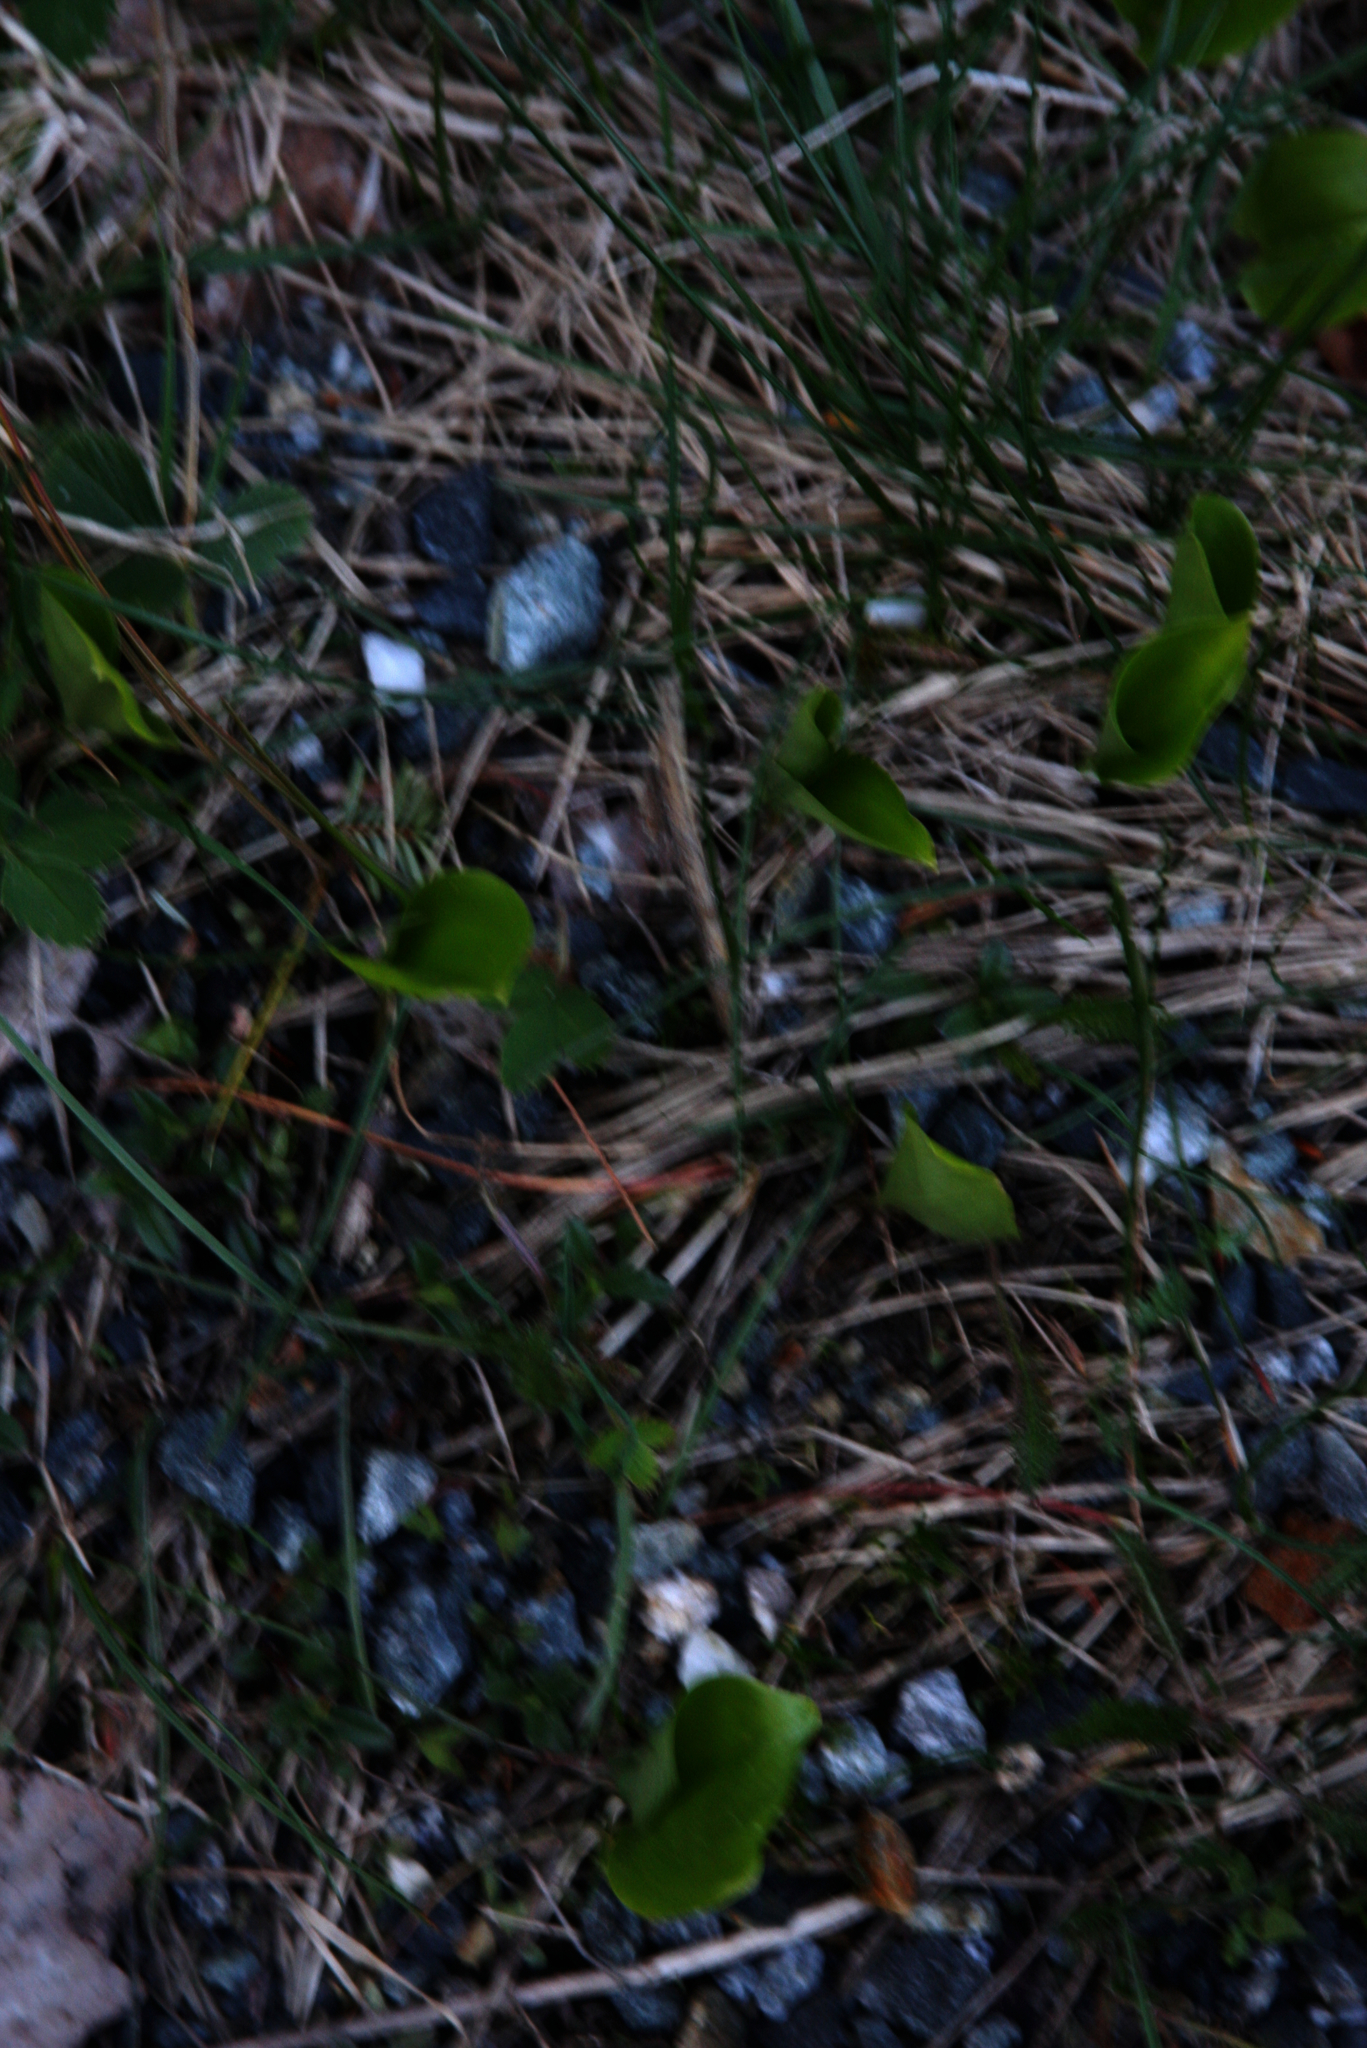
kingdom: Plantae
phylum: Tracheophyta
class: Liliopsida
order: Asparagales
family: Asparagaceae
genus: Maianthemum
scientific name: Maianthemum canadense
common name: False lily-of-the-valley
